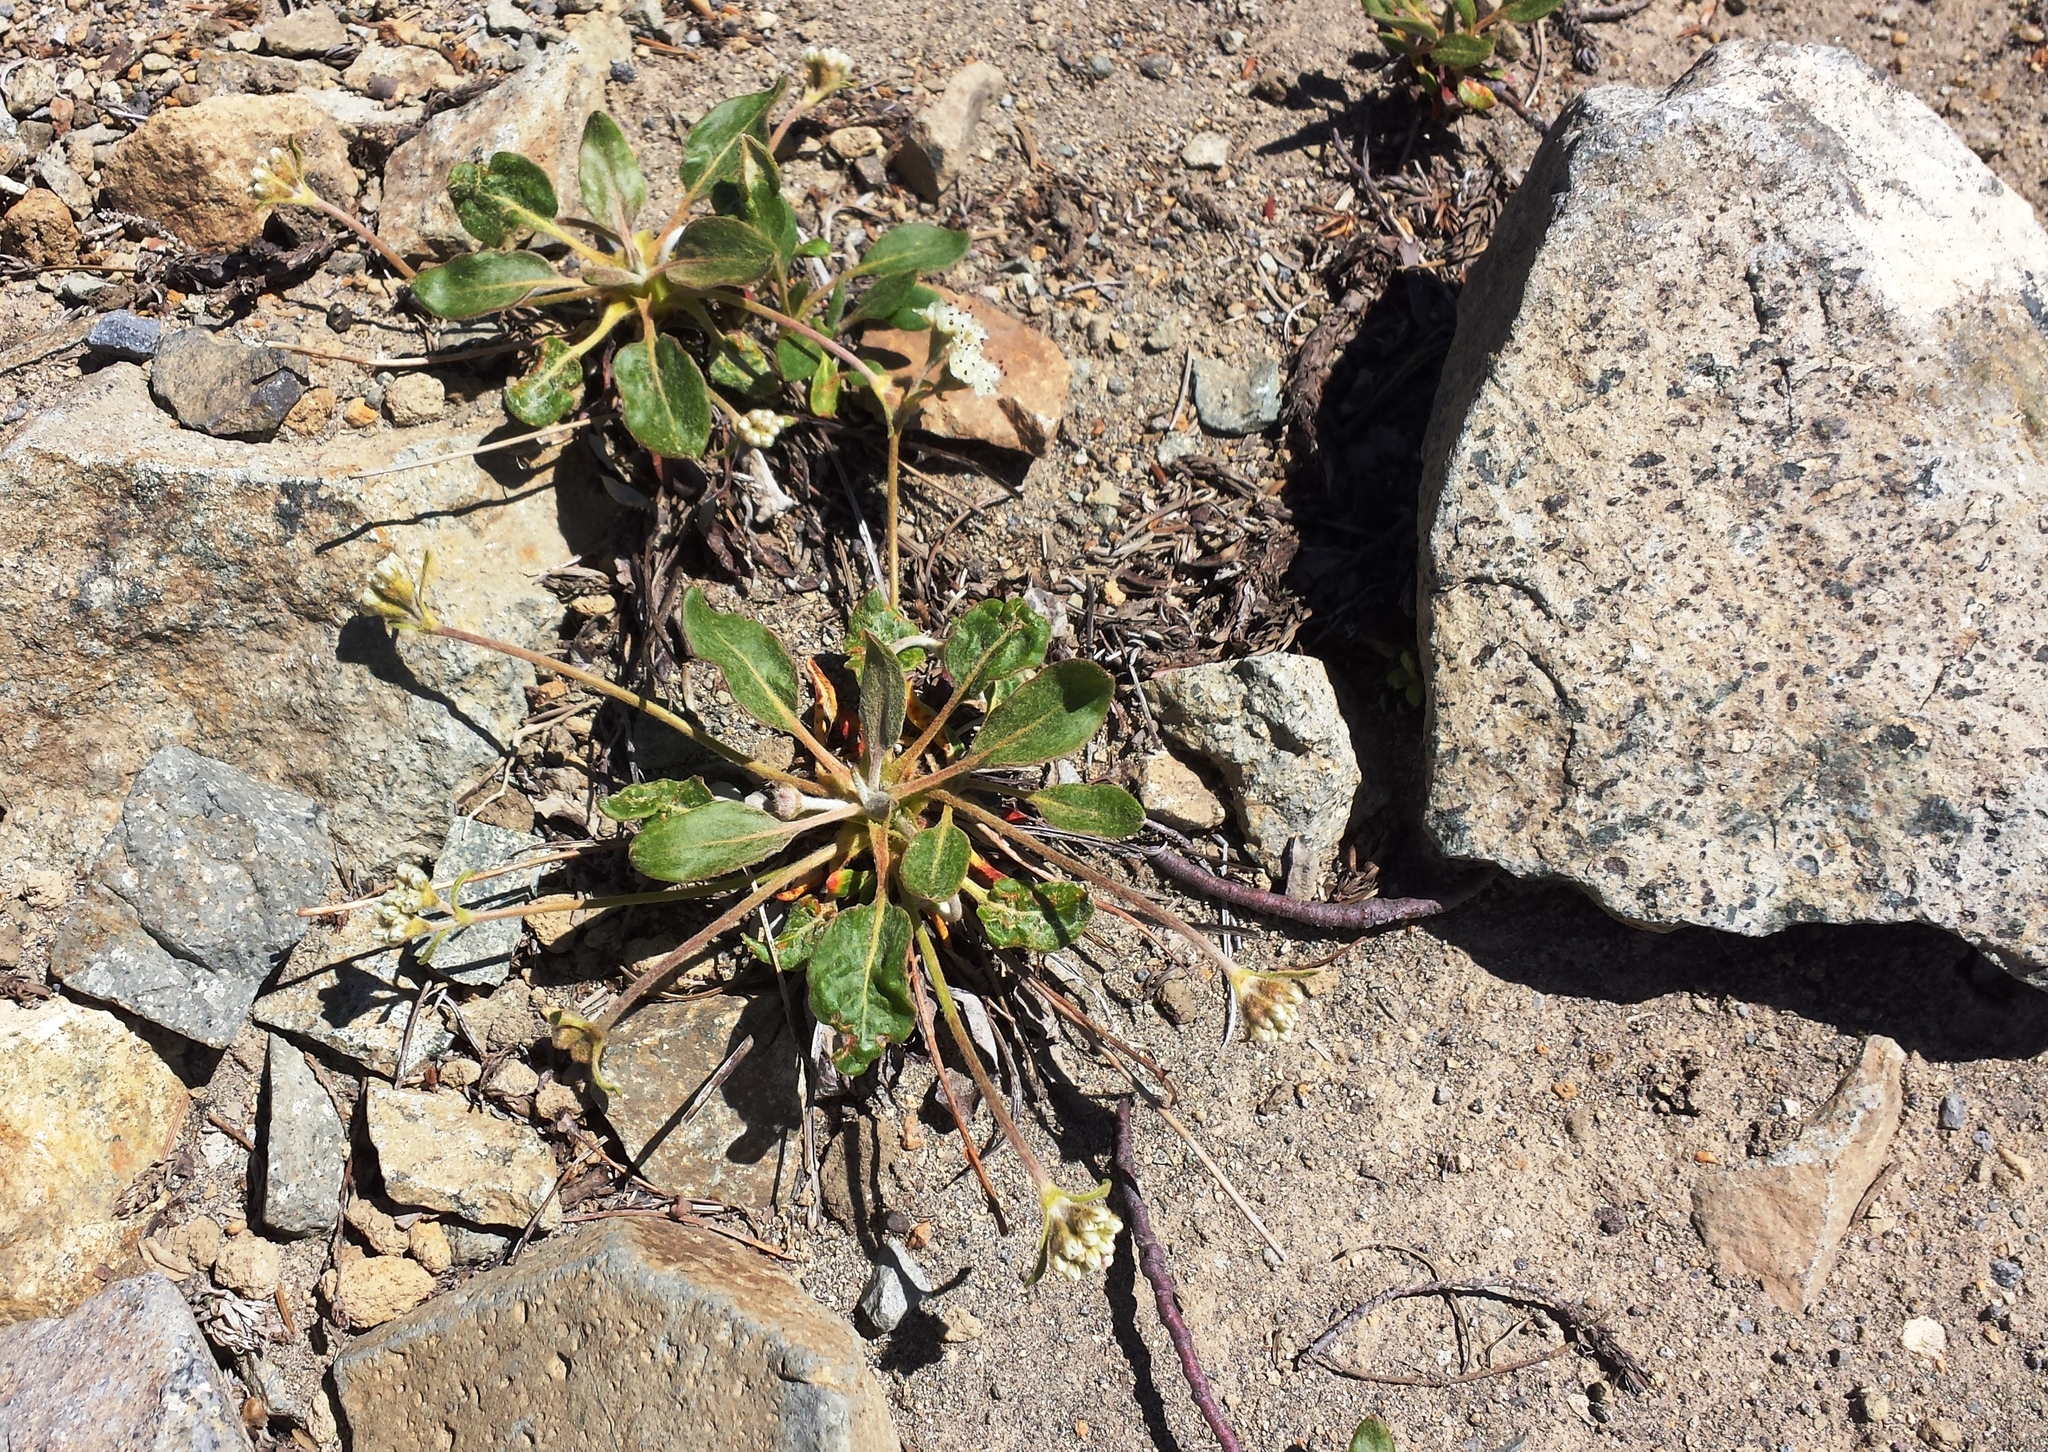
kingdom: Plantae
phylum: Tracheophyta
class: Magnoliopsida
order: Caryophyllales
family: Polygonaceae
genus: Eriogonum
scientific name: Eriogonum pyrolifolium
